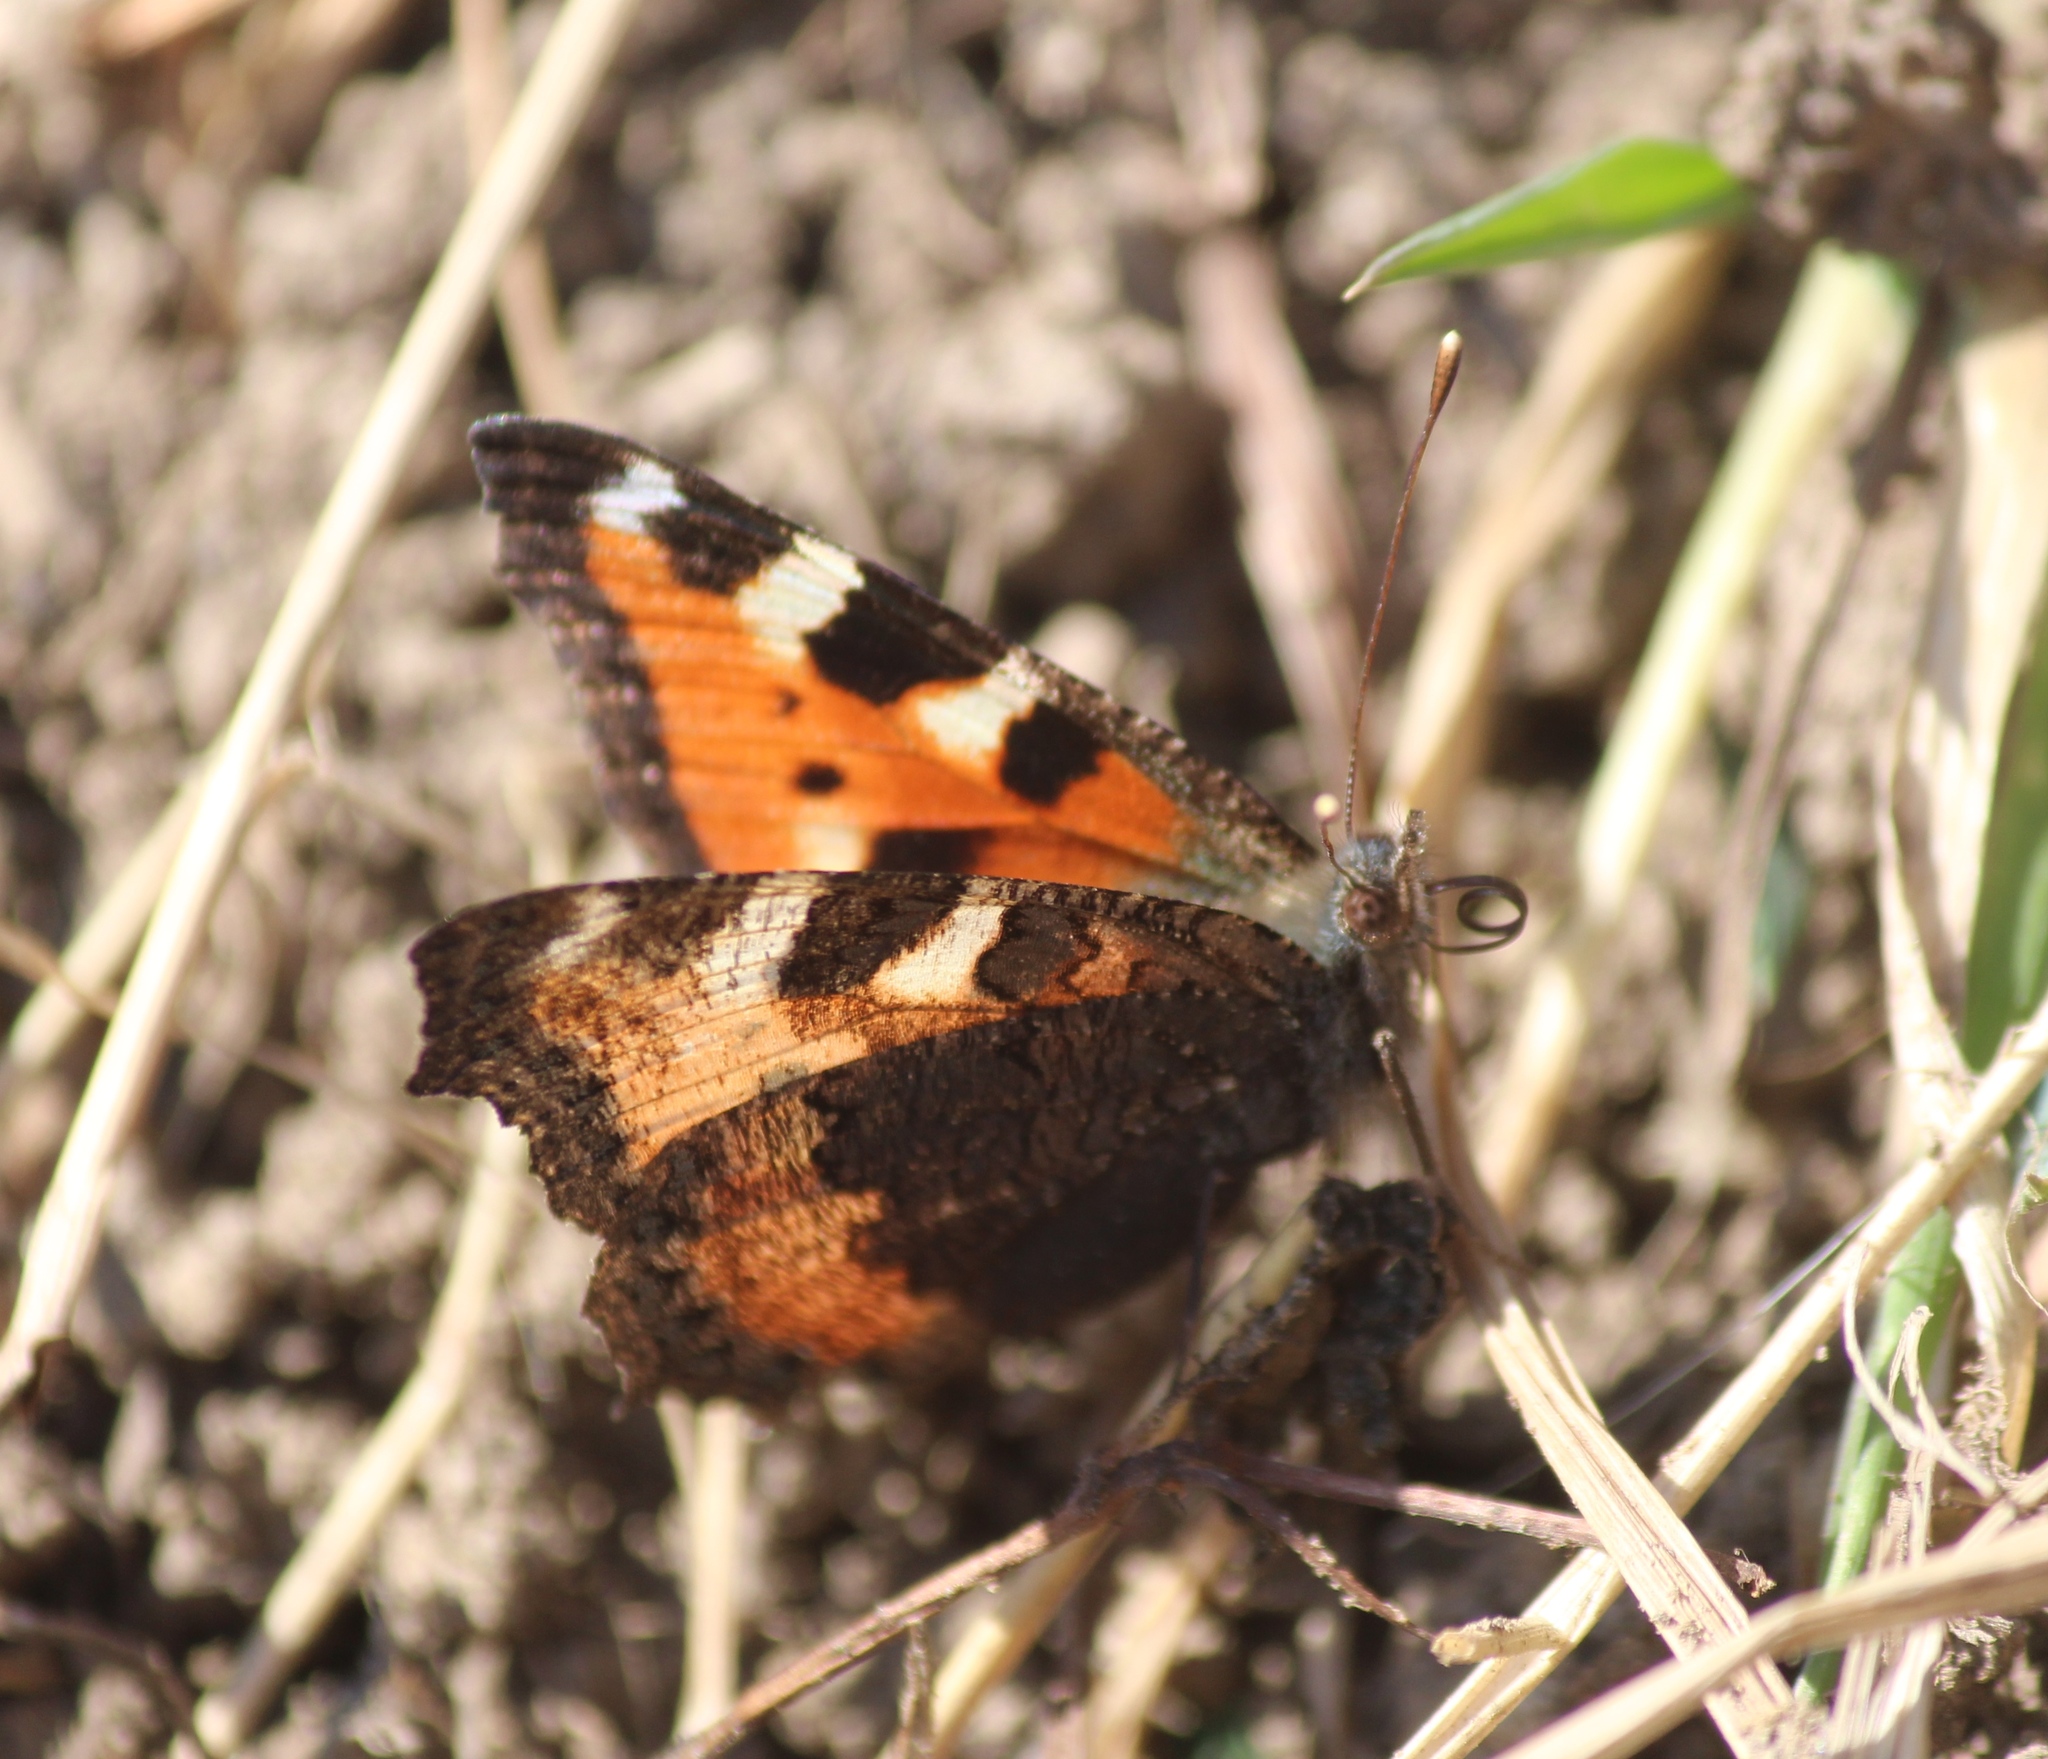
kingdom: Animalia
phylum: Arthropoda
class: Insecta
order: Lepidoptera
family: Nymphalidae
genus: Aglais
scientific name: Aglais urticae
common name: Small tortoiseshell
